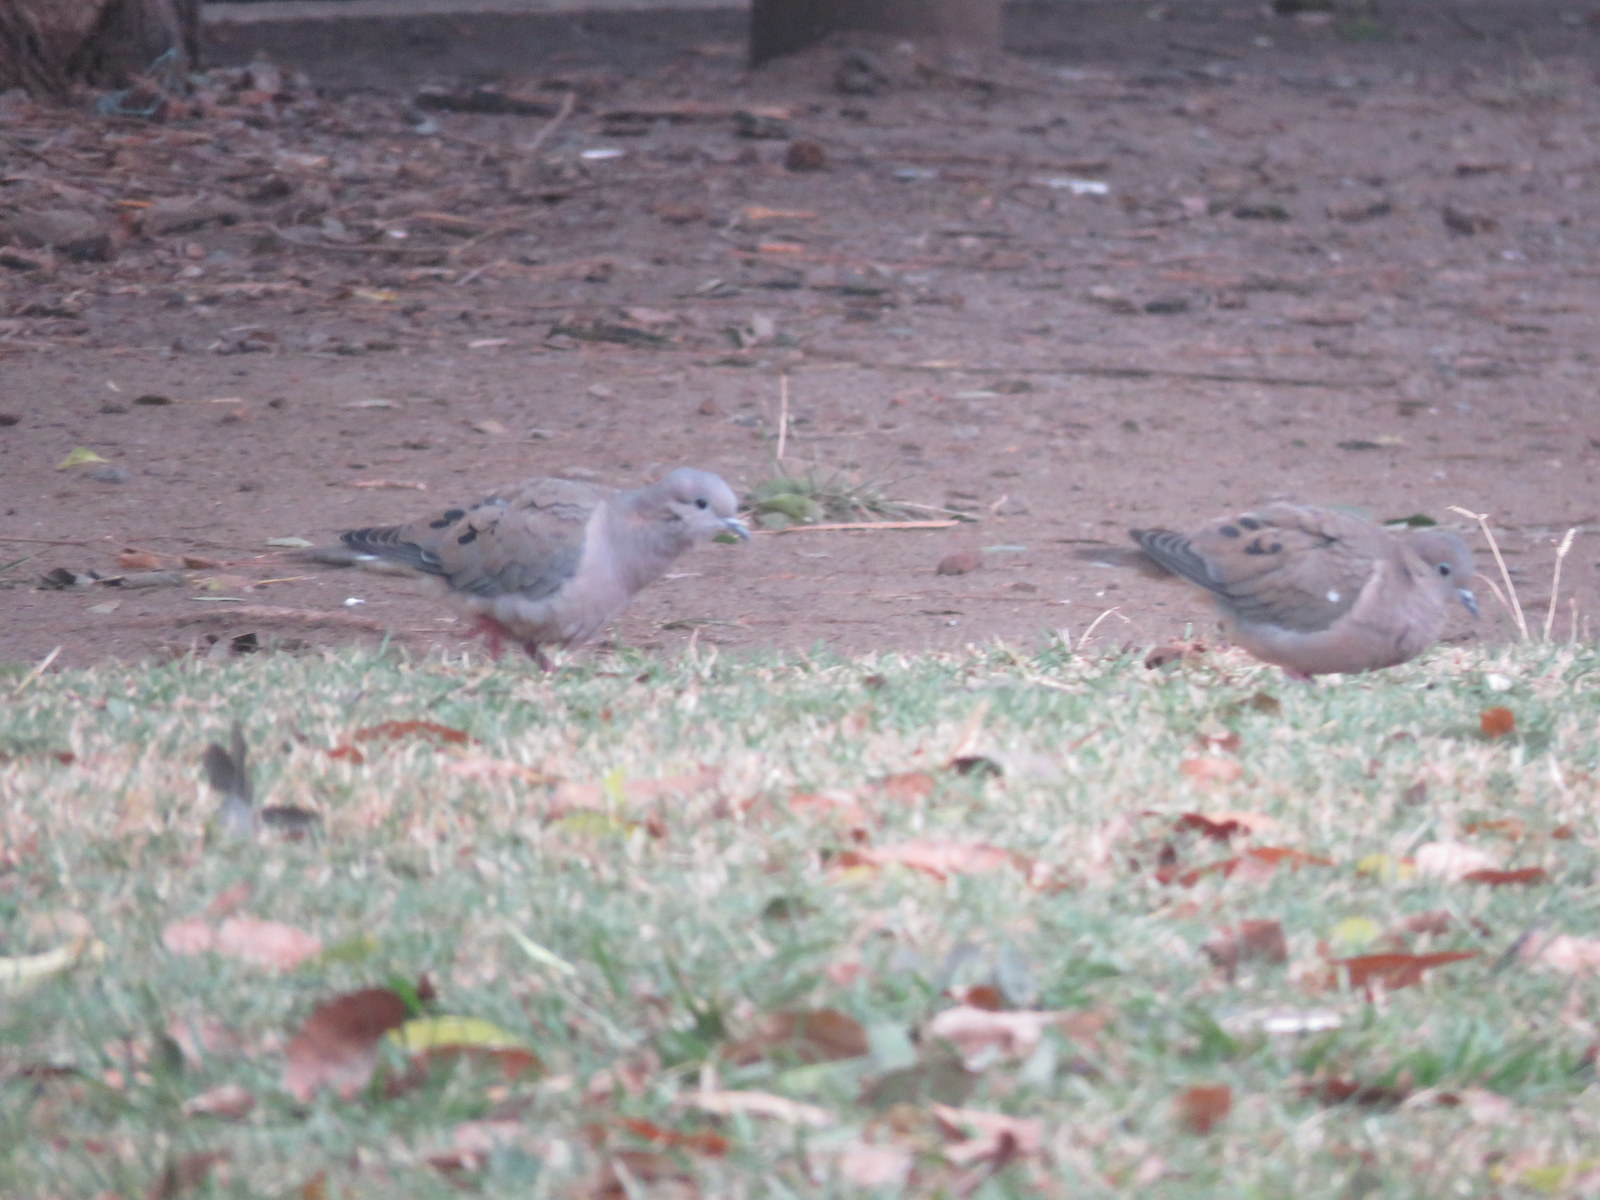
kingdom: Animalia
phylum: Chordata
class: Aves
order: Columbiformes
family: Columbidae
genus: Zenaida
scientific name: Zenaida auriculata
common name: Eared dove
